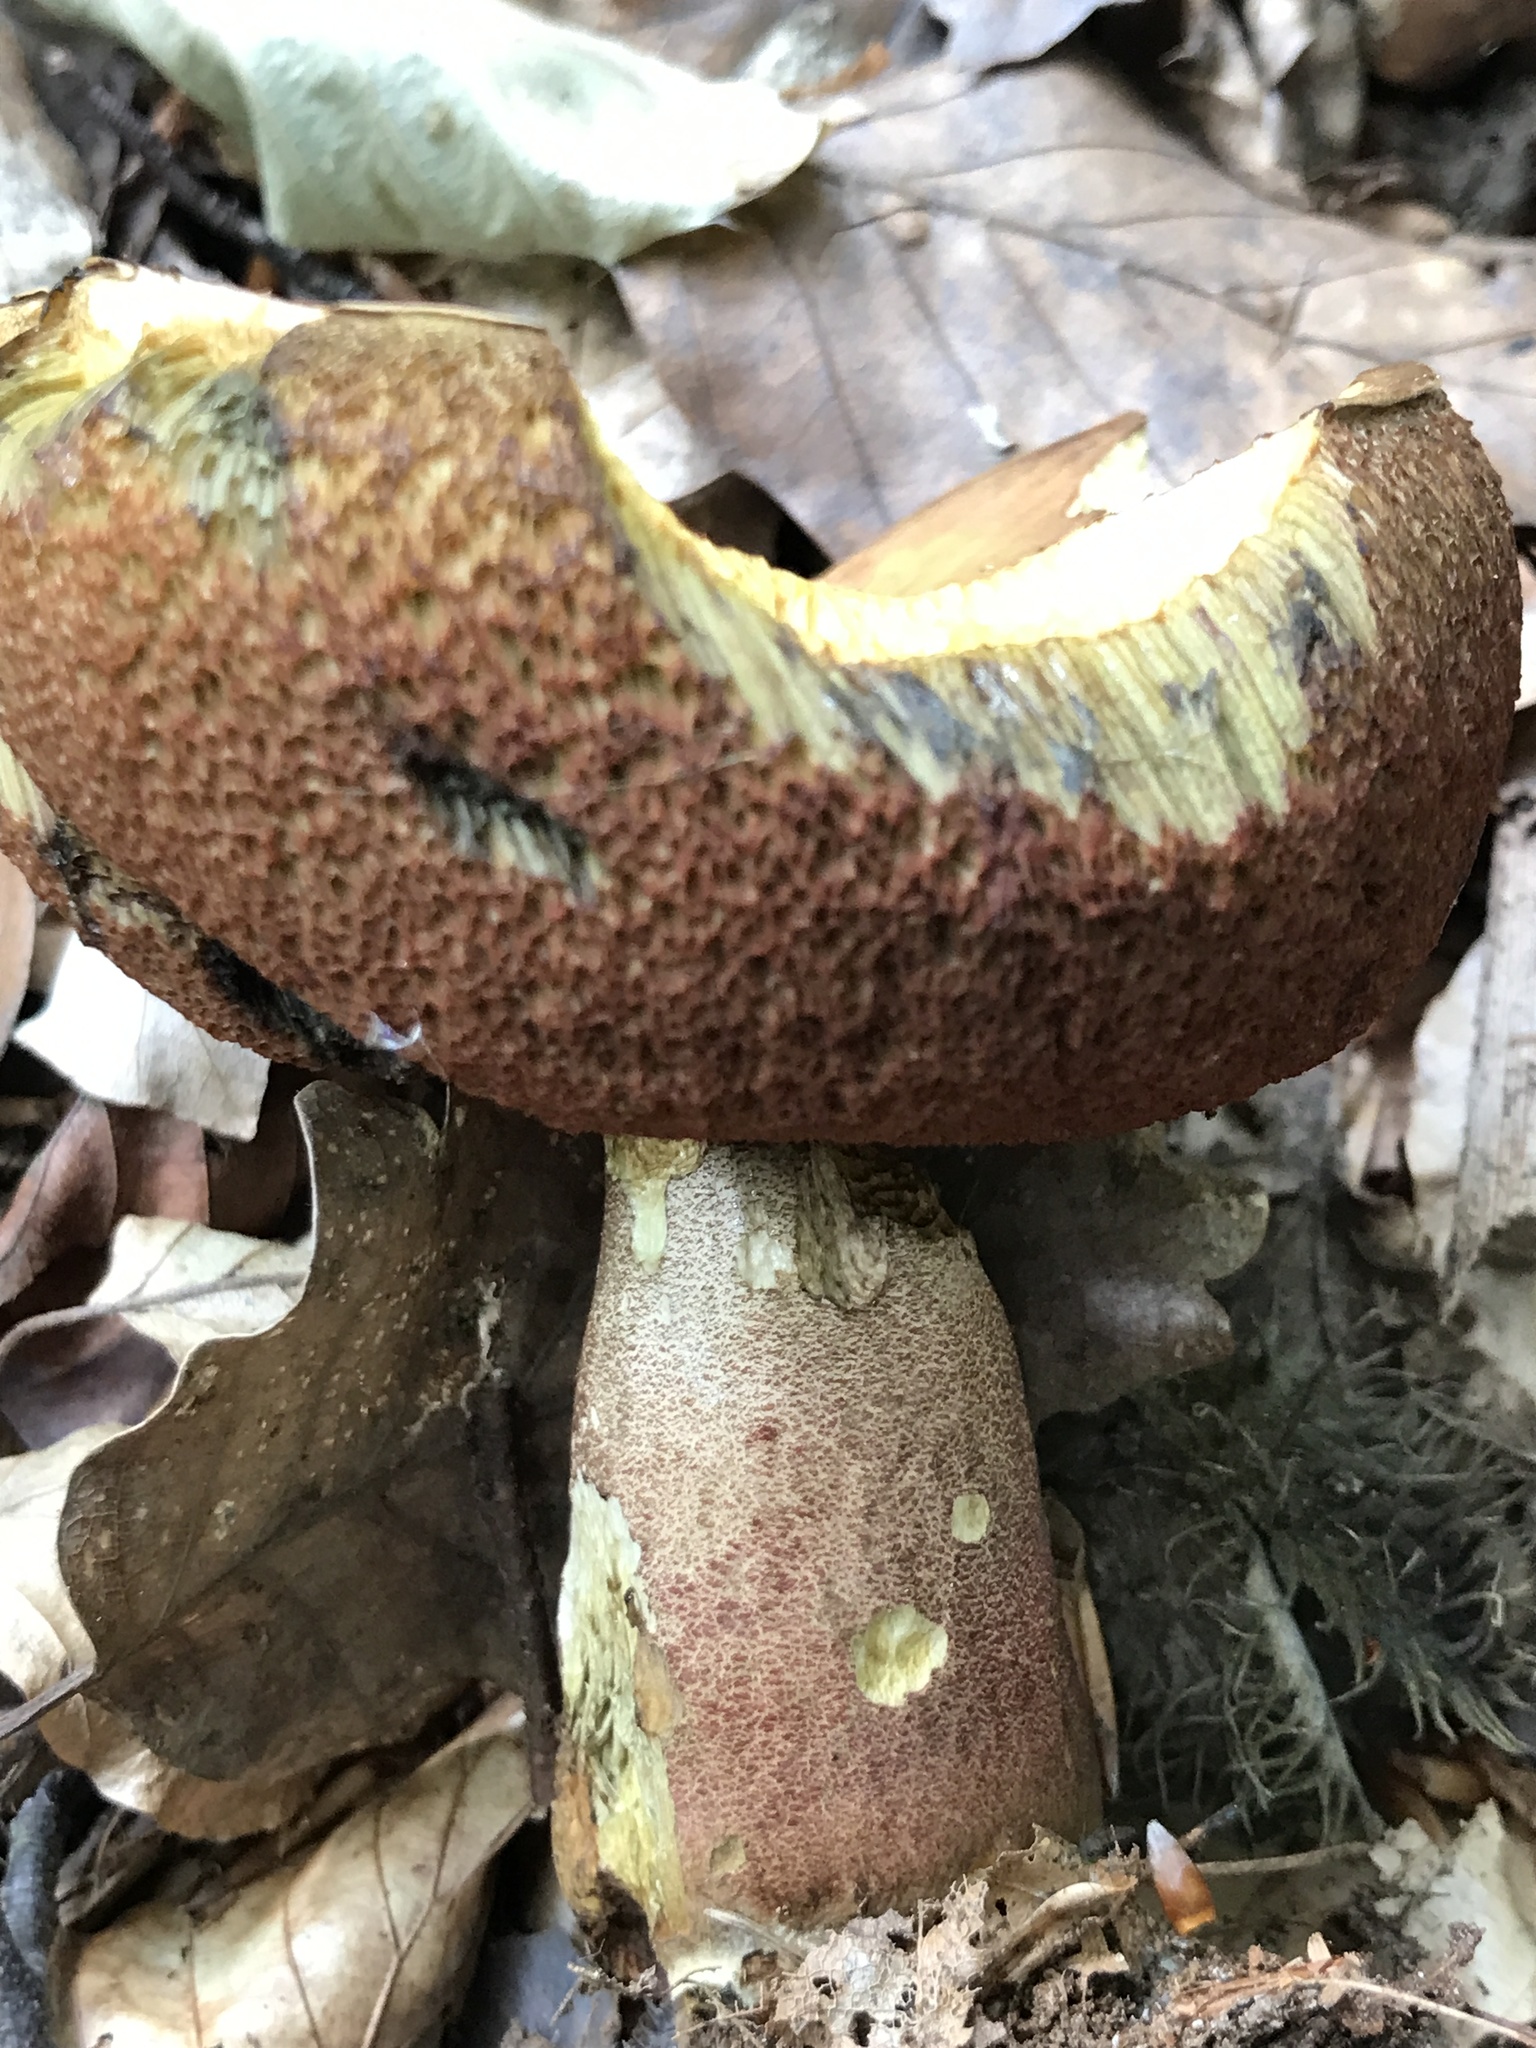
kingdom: Fungi
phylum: Basidiomycota
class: Agaricomycetes
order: Boletales
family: Boletaceae
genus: Neoboletus
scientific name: Neoboletus erythropus
